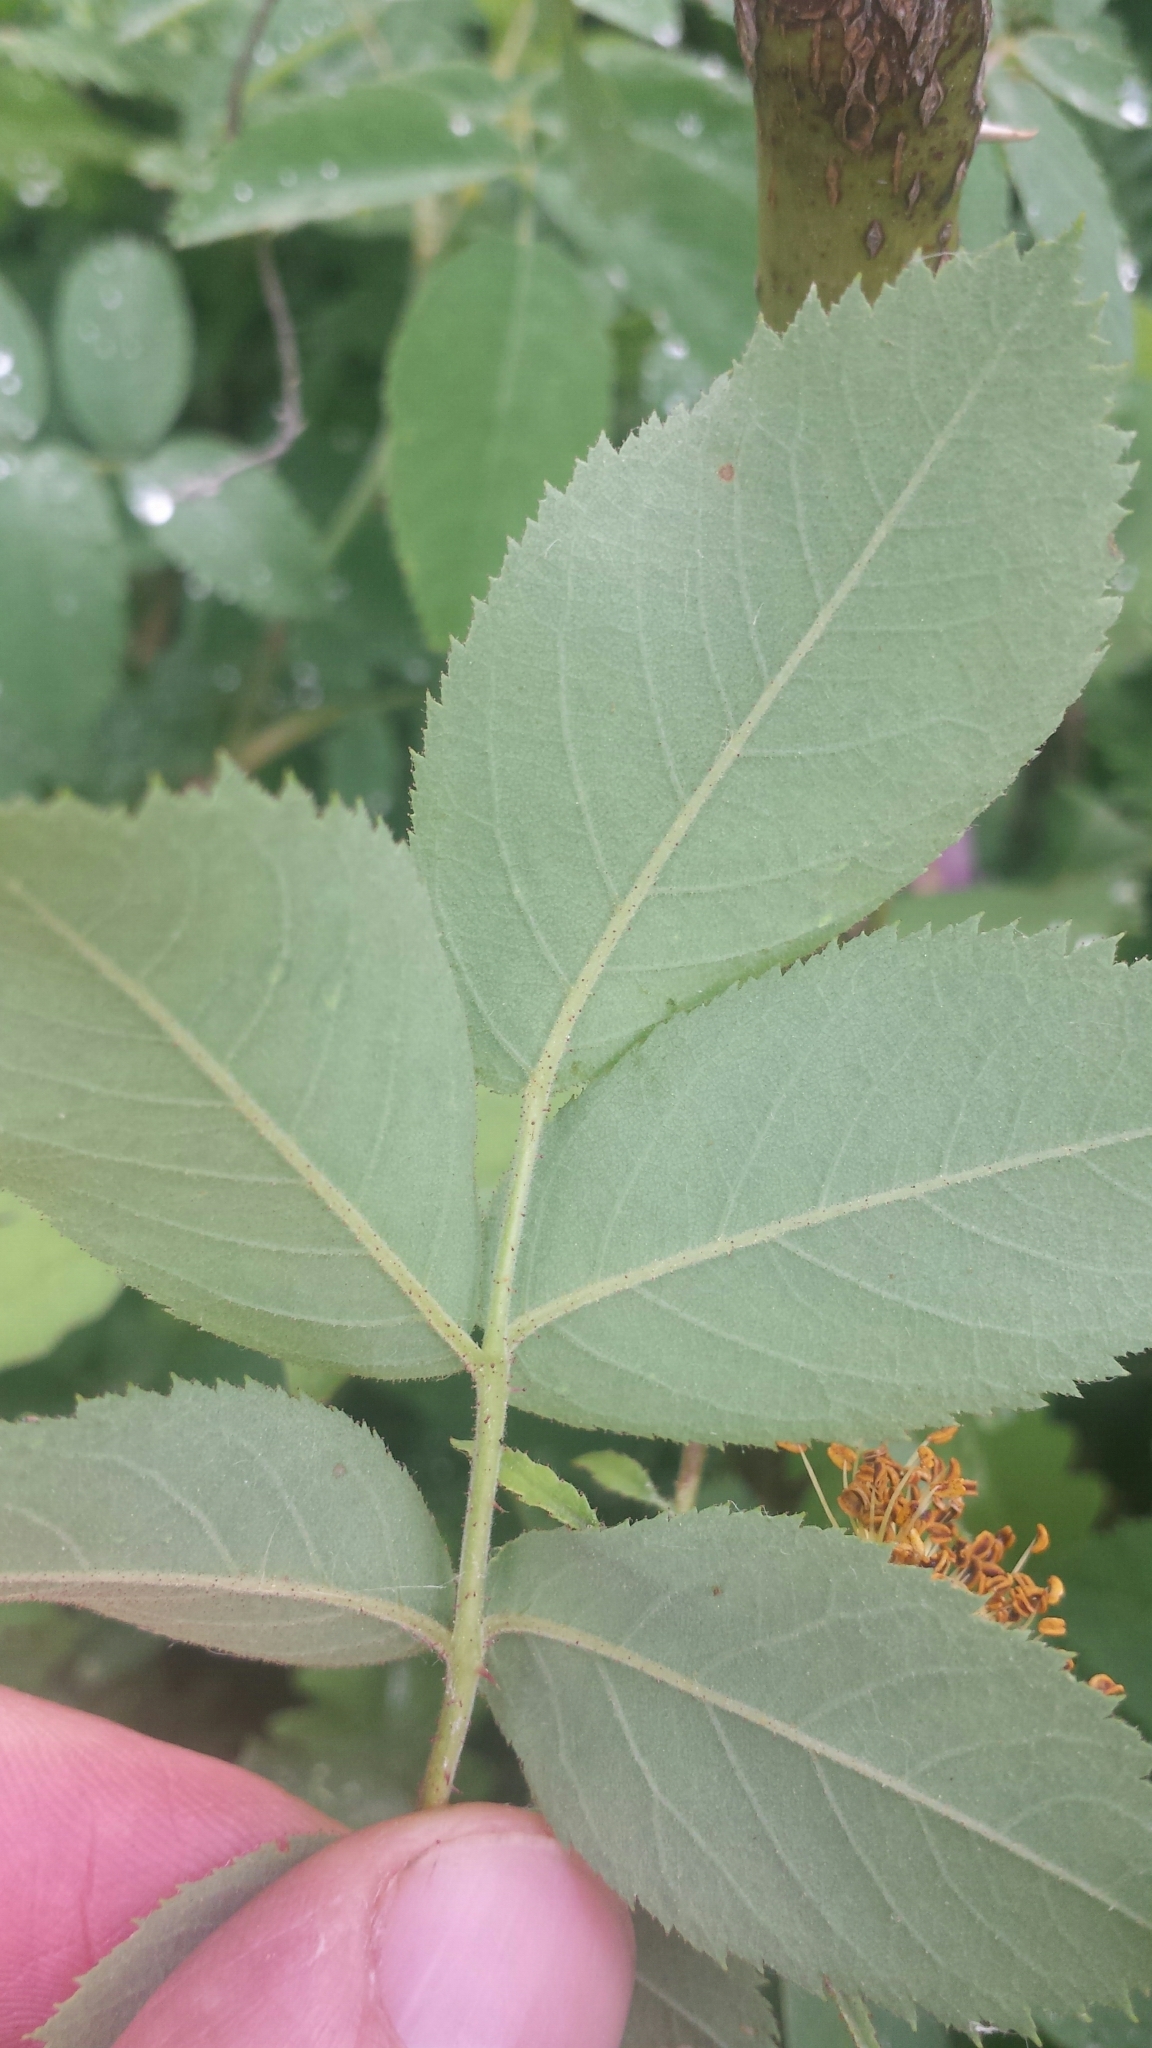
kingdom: Plantae
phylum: Tracheophyta
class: Magnoliopsida
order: Rosales
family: Rosaceae
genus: Rosa
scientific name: Rosa sherardii
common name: Sherard's downy rose
